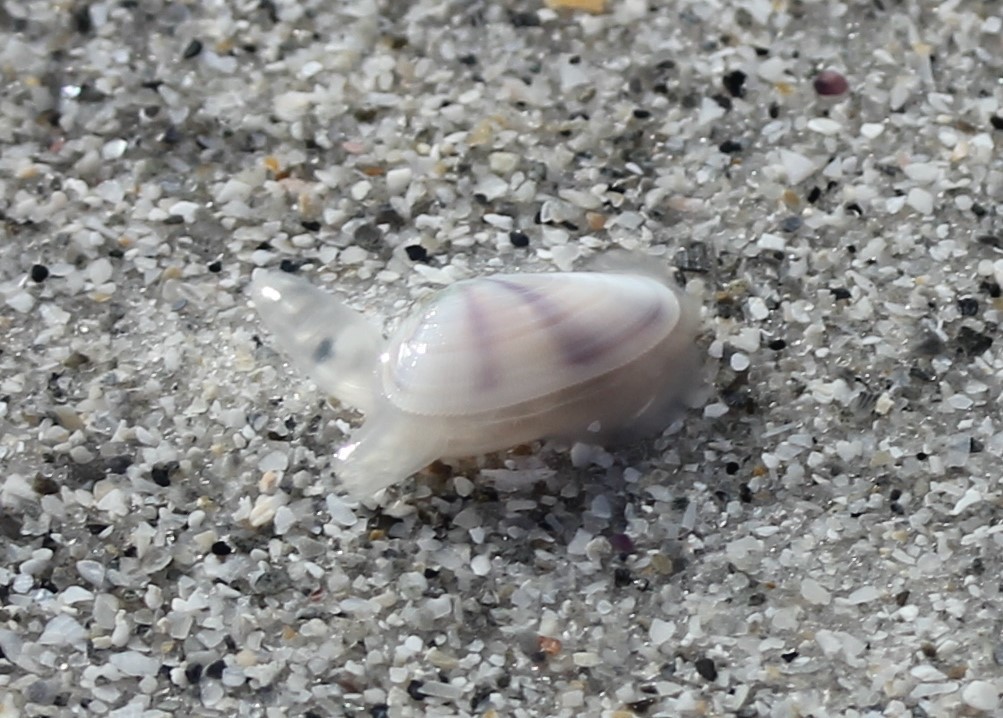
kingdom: Animalia
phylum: Mollusca
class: Bivalvia
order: Cardiida
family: Donacidae
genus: Donax
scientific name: Donax variabilis
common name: Butterfly shell
